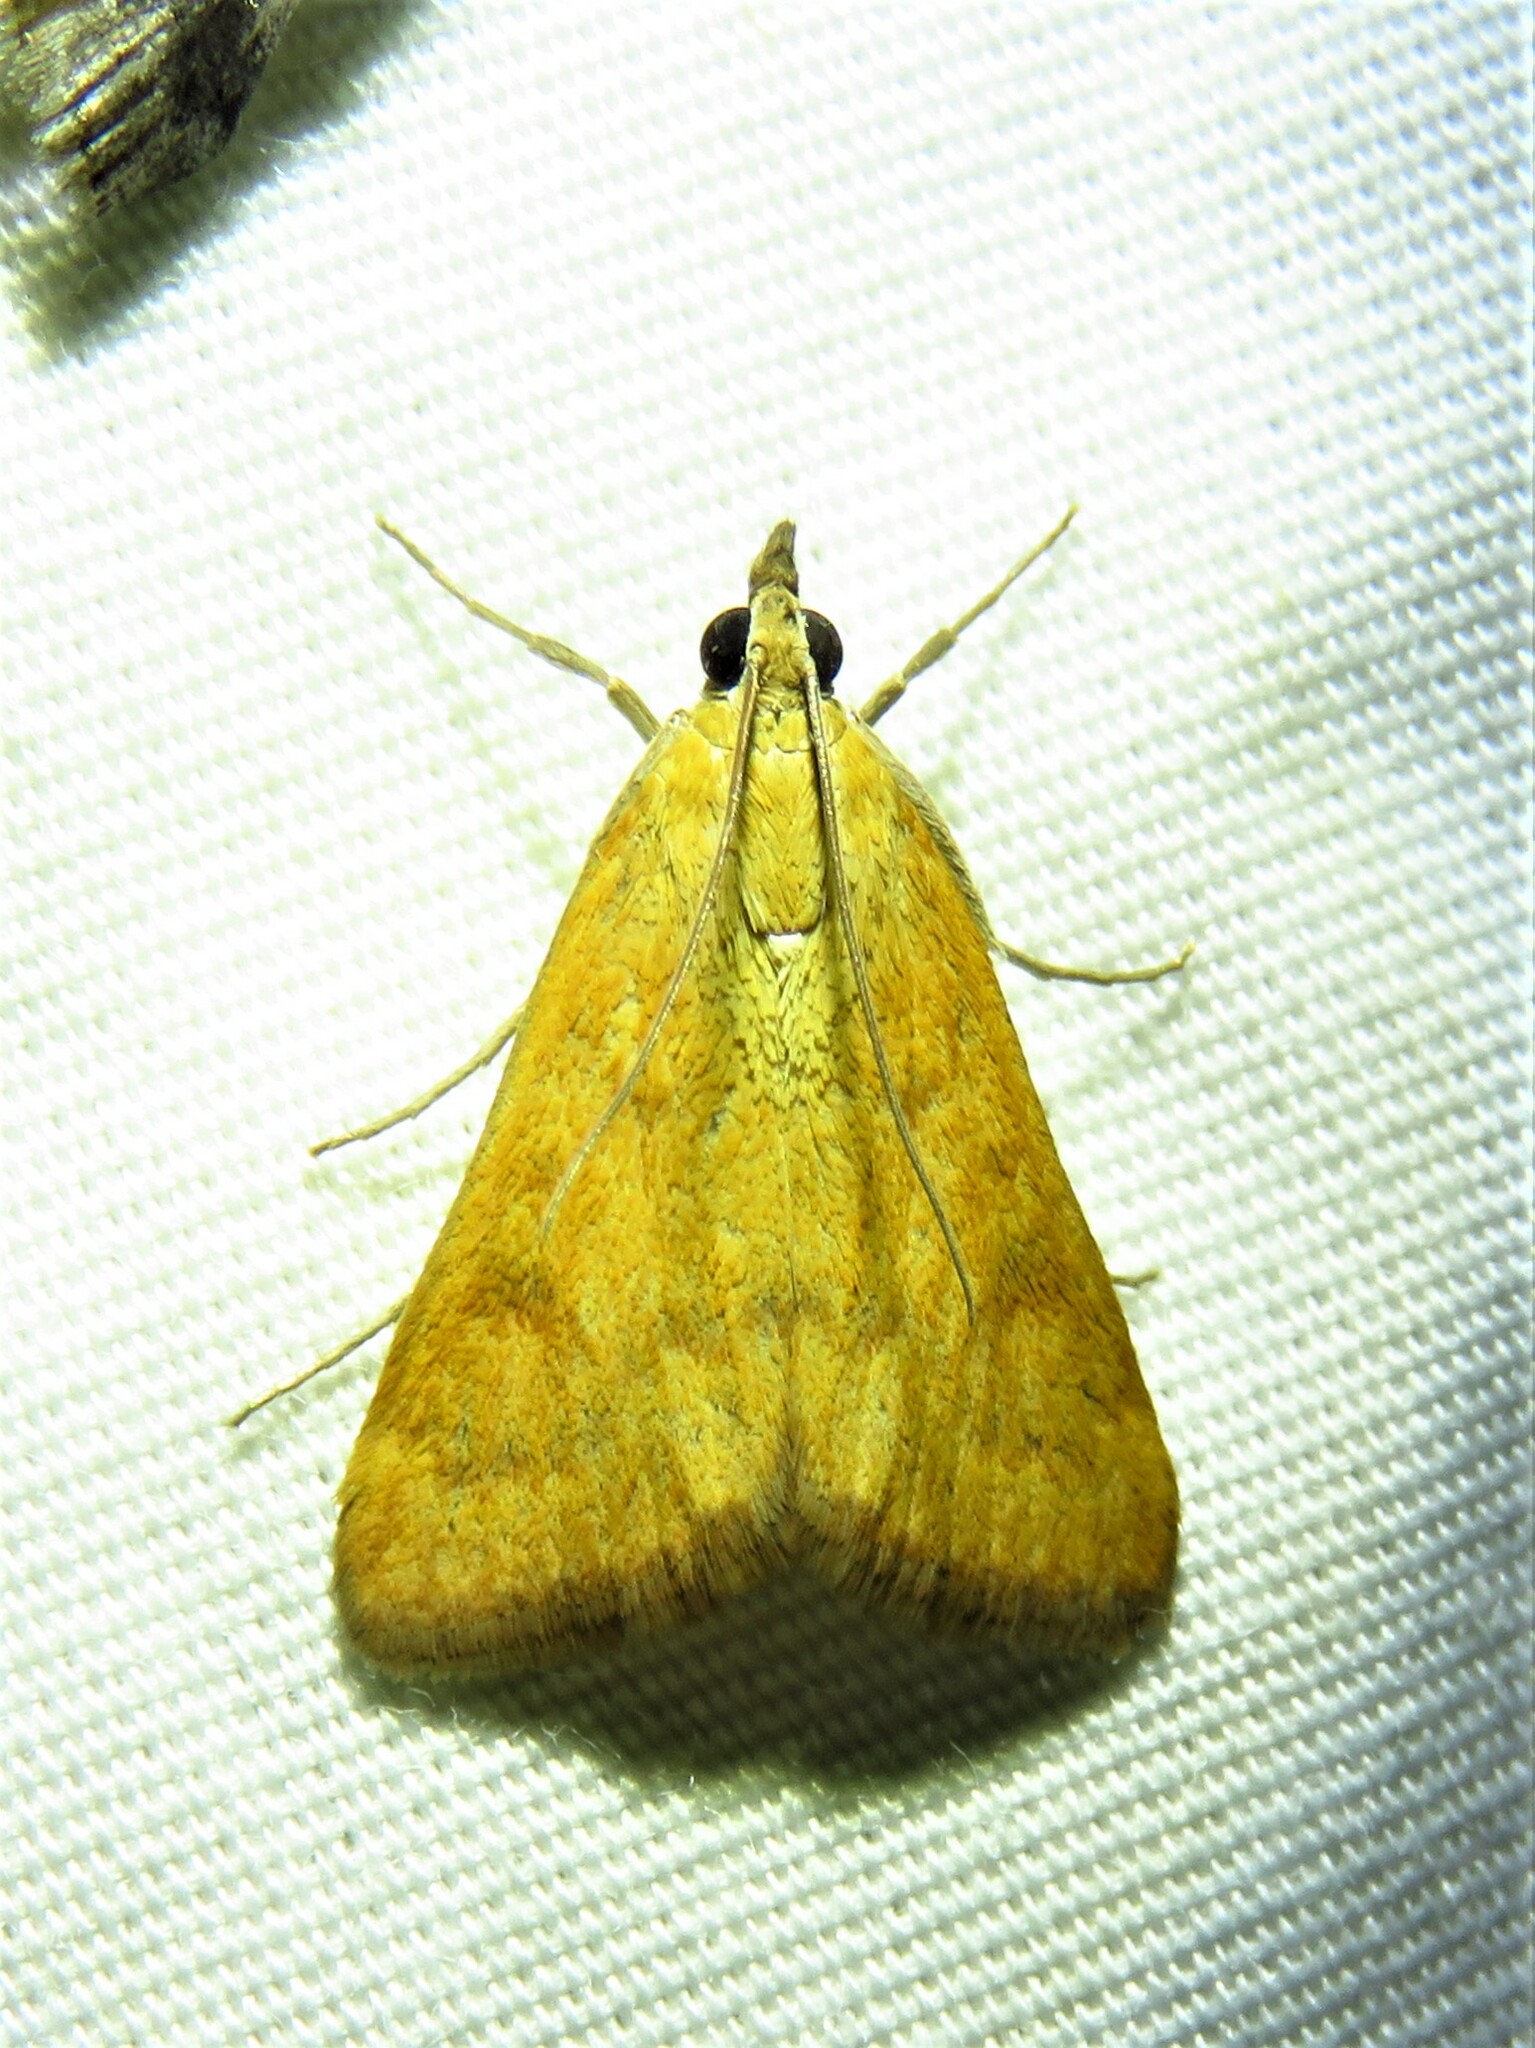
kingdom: Animalia
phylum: Arthropoda
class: Insecta
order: Lepidoptera
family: Crambidae
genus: Achyra
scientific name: Achyra rantalis
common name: Garden webworm
